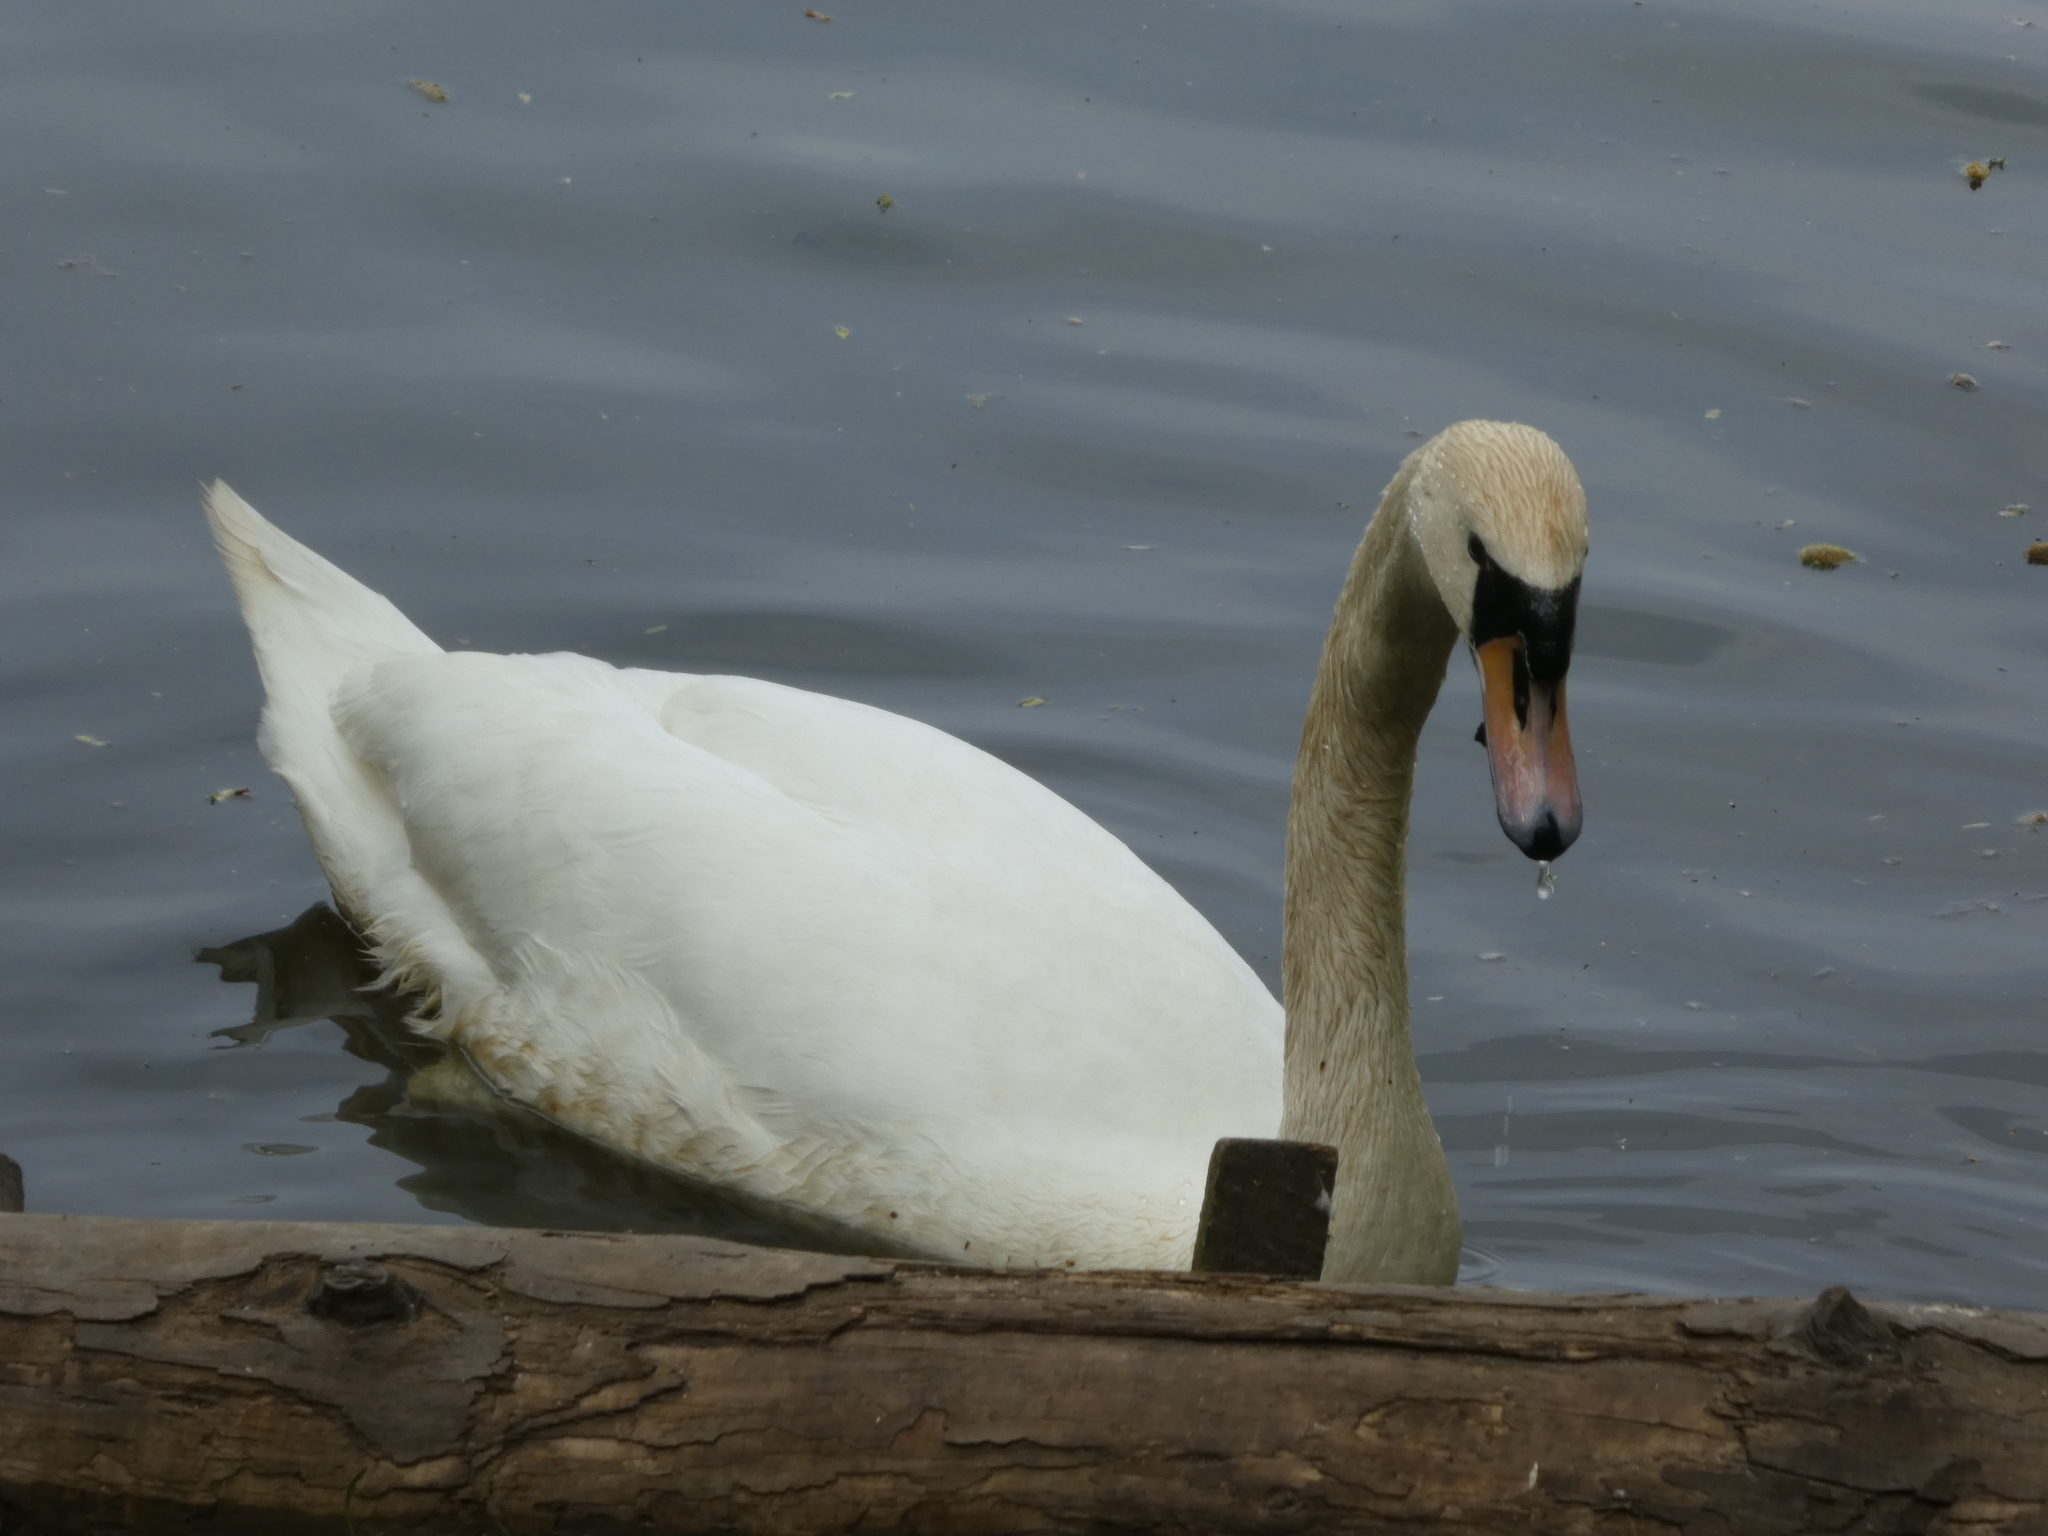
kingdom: Animalia
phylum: Chordata
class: Aves
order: Anseriformes
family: Anatidae
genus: Cygnus
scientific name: Cygnus olor
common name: Mute swan
